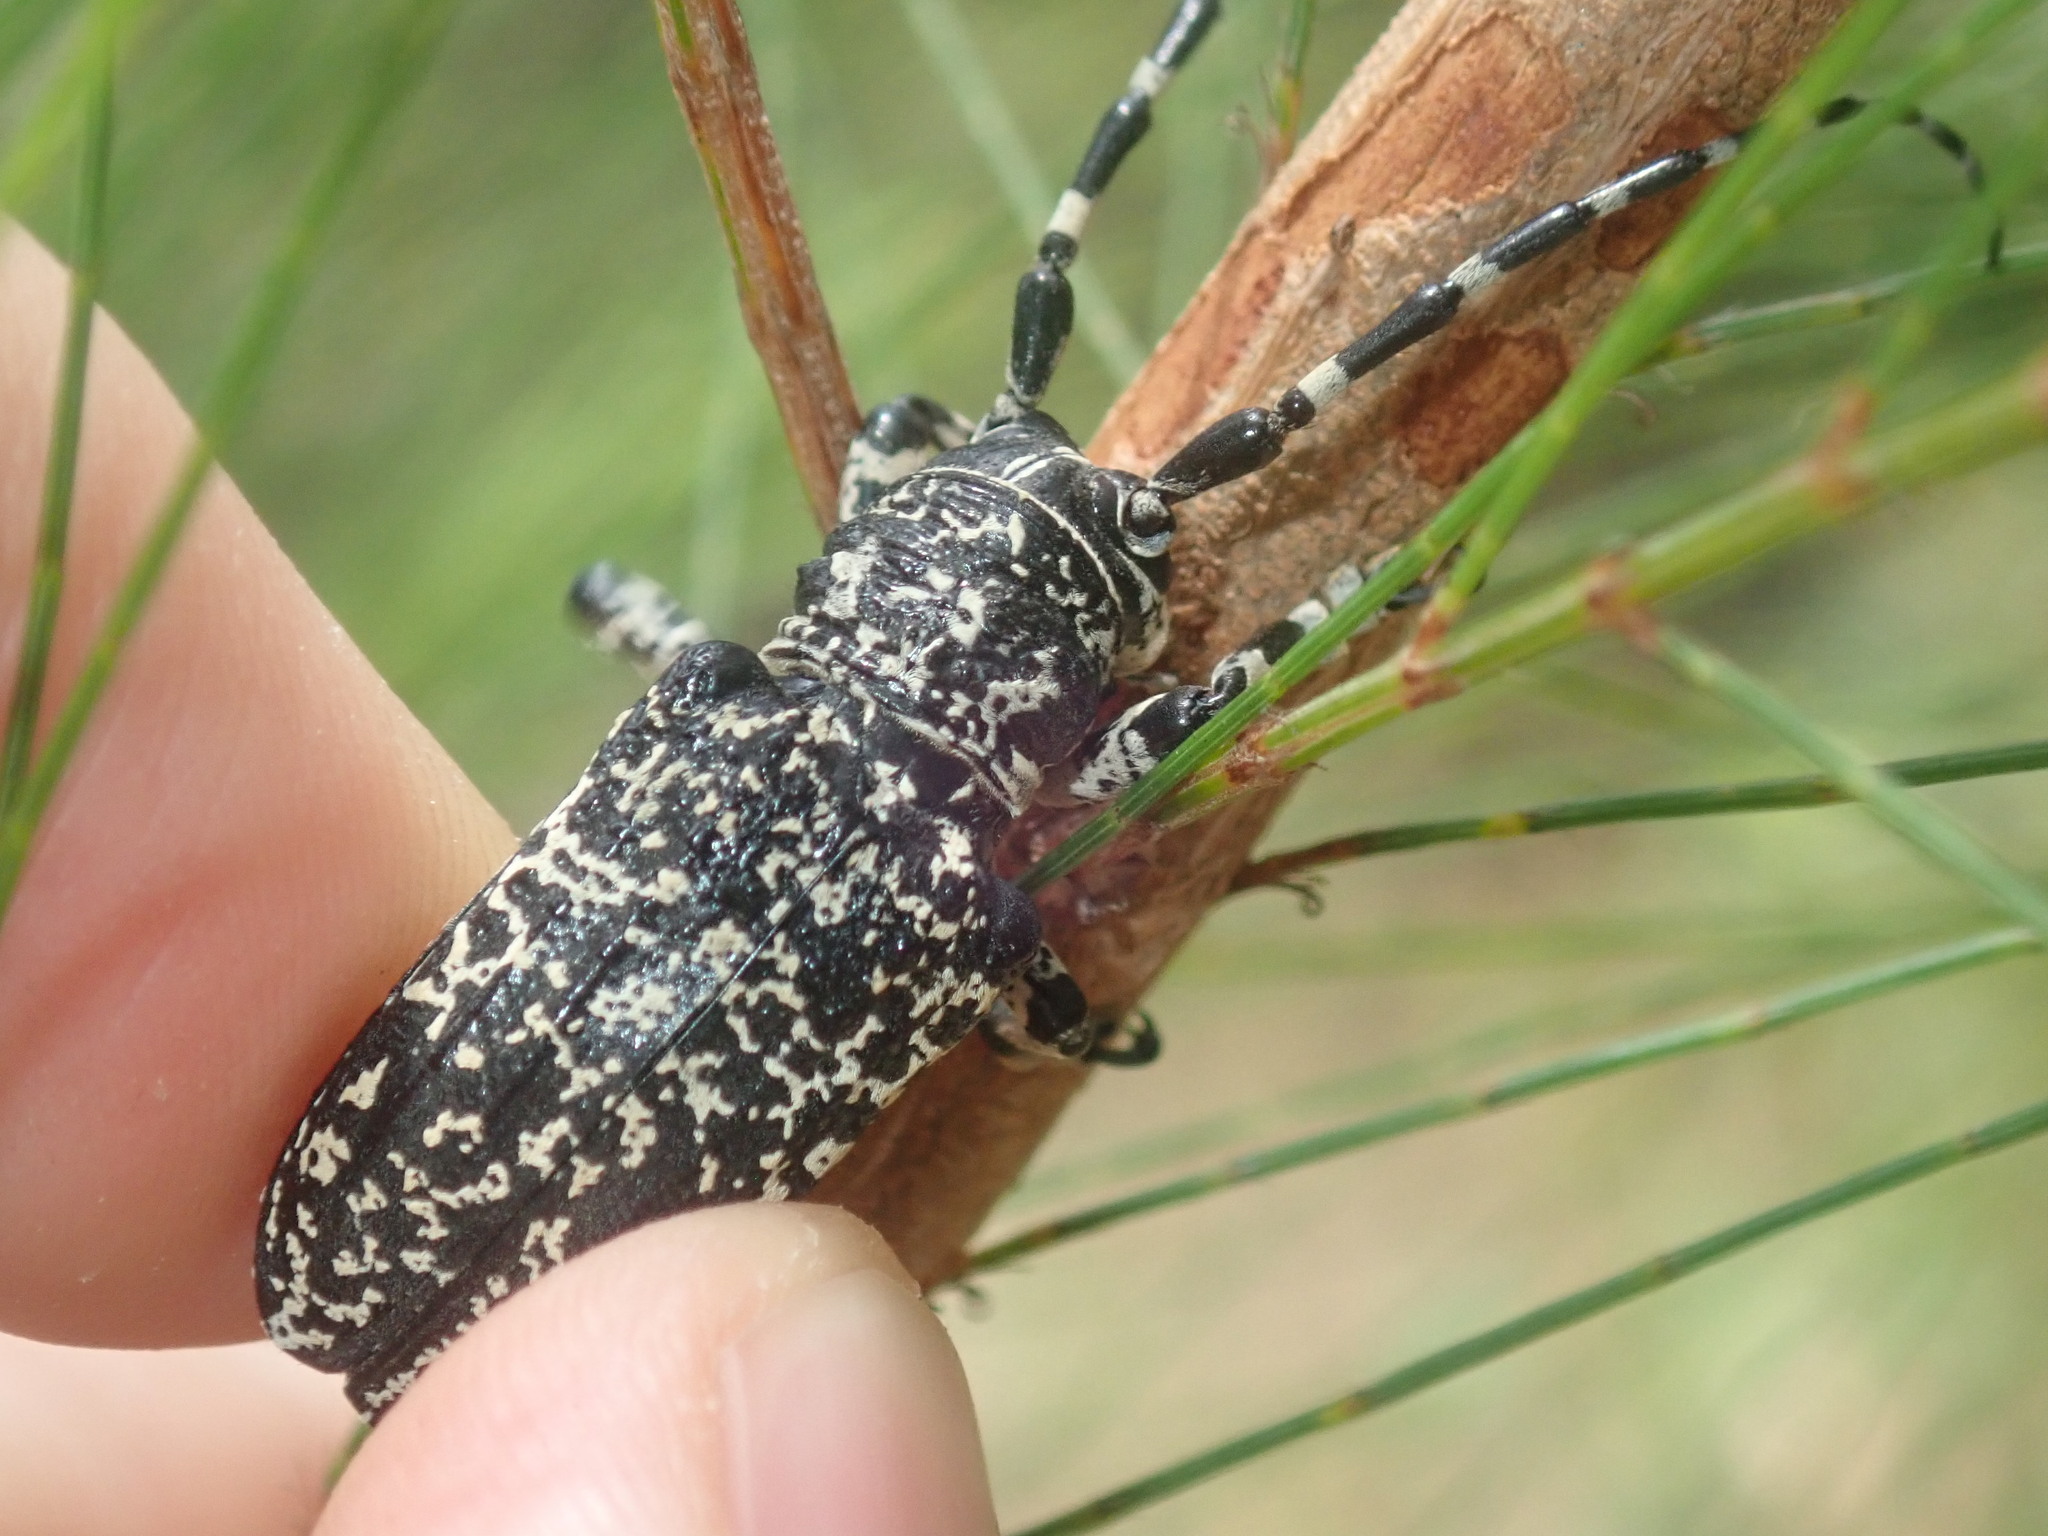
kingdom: Animalia
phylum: Arthropoda
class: Insecta
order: Coleoptera
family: Cerambycidae
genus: Rhytiphora
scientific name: Rhytiphora vermicularia
